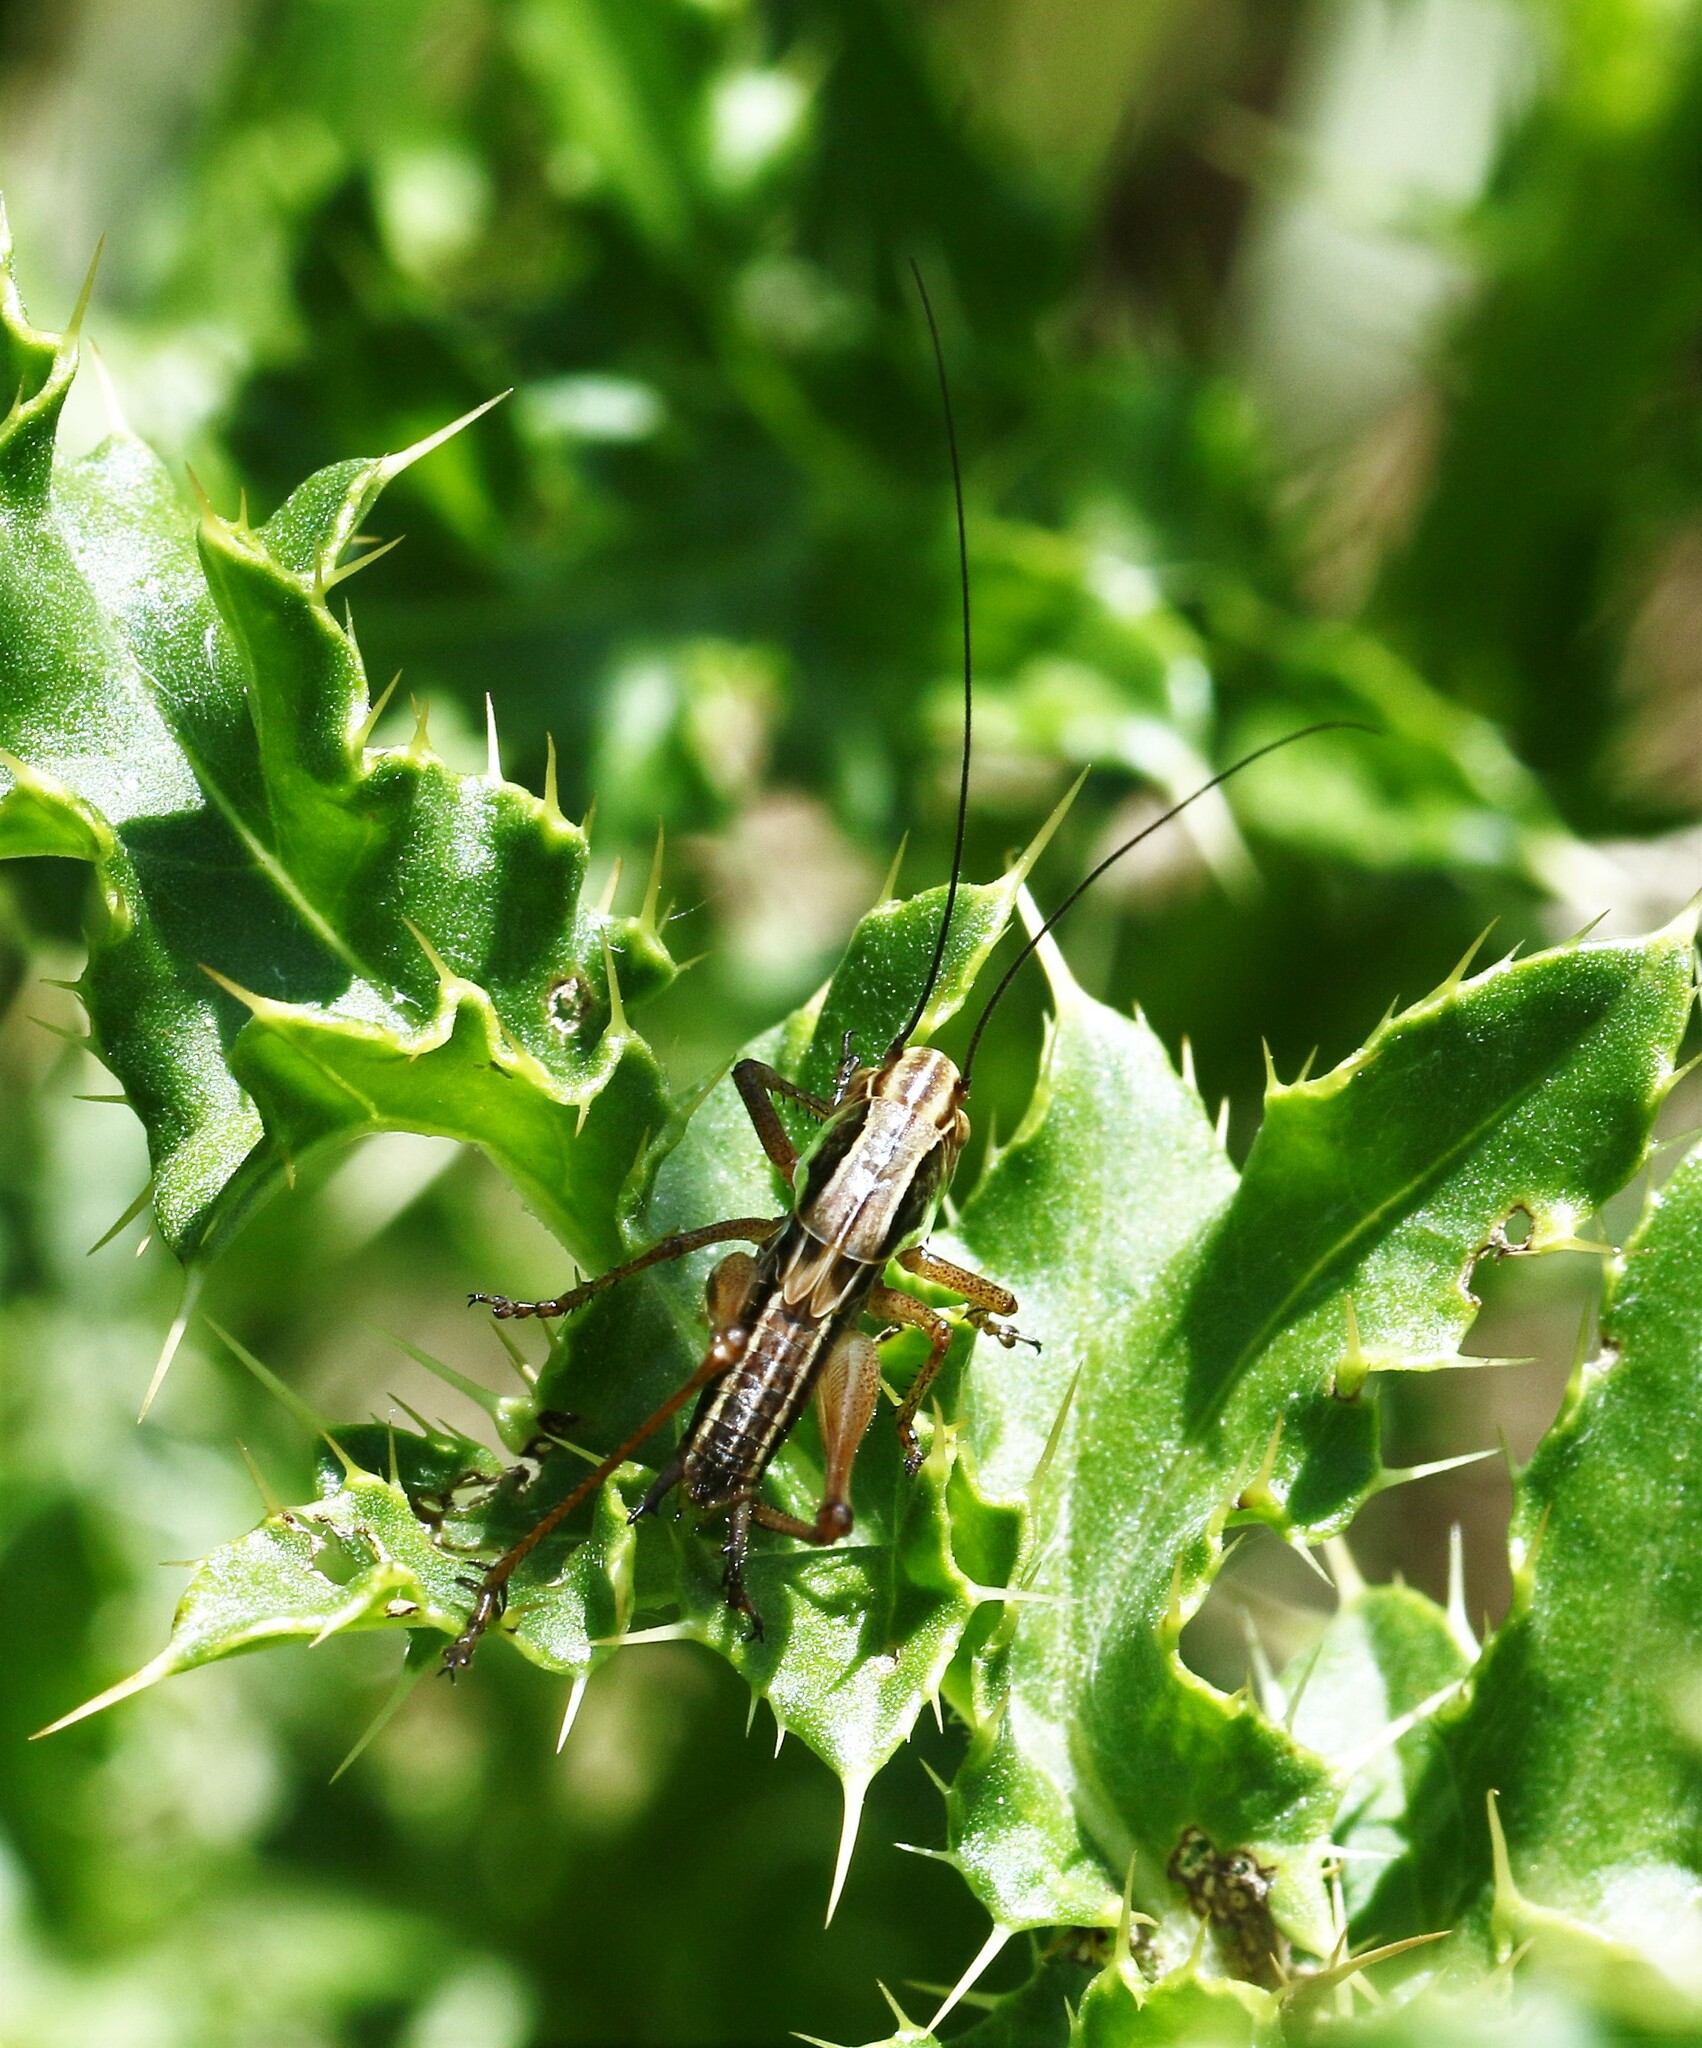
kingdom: Animalia
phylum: Arthropoda
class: Insecta
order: Orthoptera
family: Tettigoniidae
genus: Roeseliana
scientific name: Roeseliana roeselii
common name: Roesel's bush cricket
